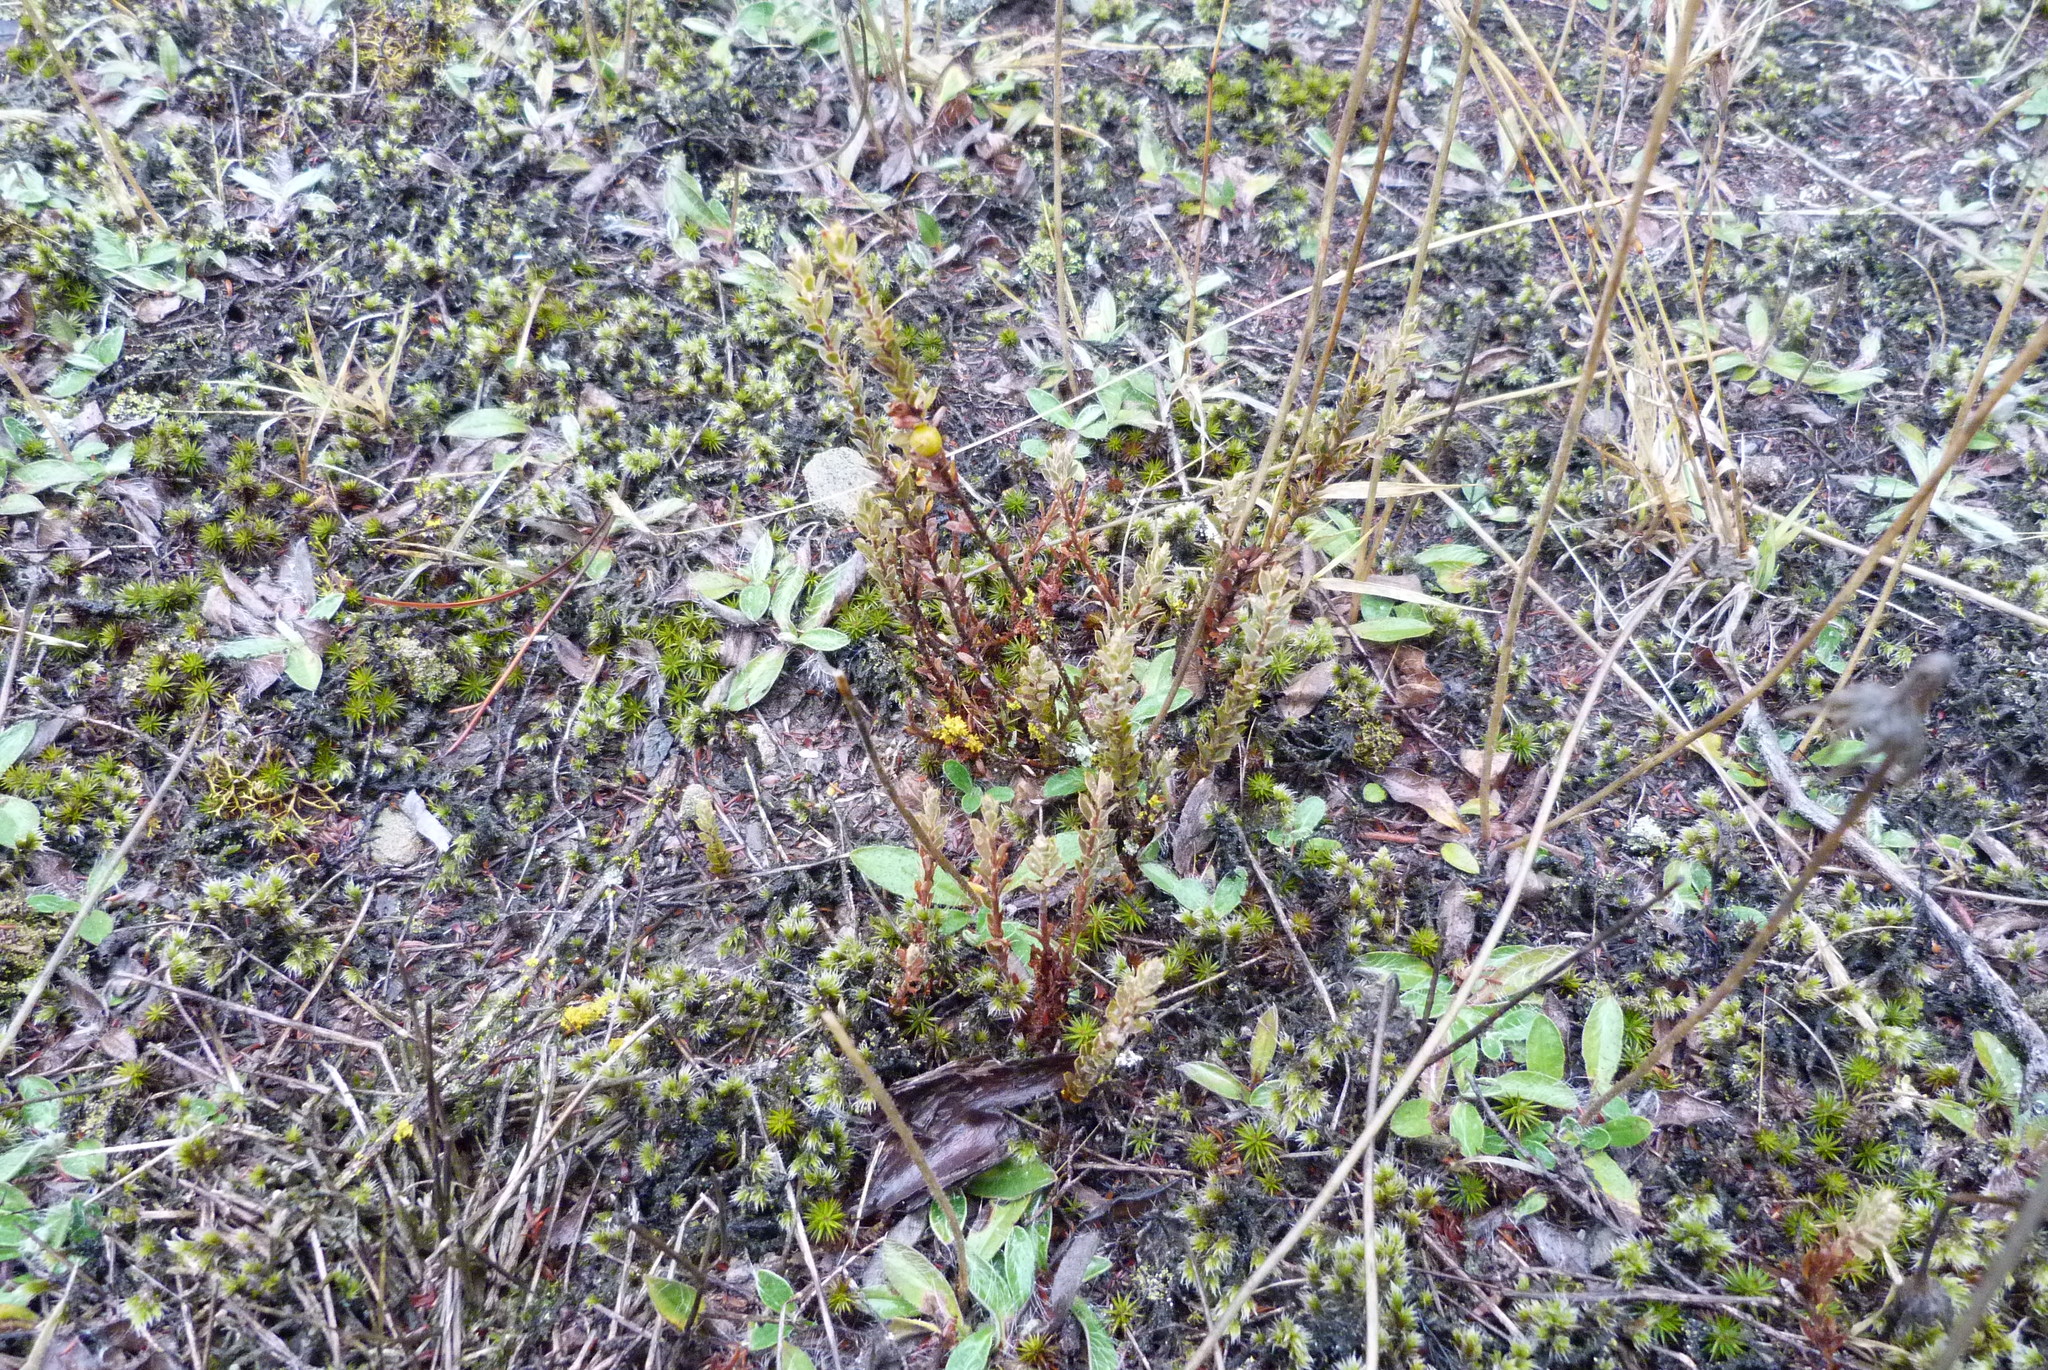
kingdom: Plantae
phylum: Tracheophyta
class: Magnoliopsida
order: Ericales
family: Ericaceae
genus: Styphelia
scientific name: Styphelia nesophila
